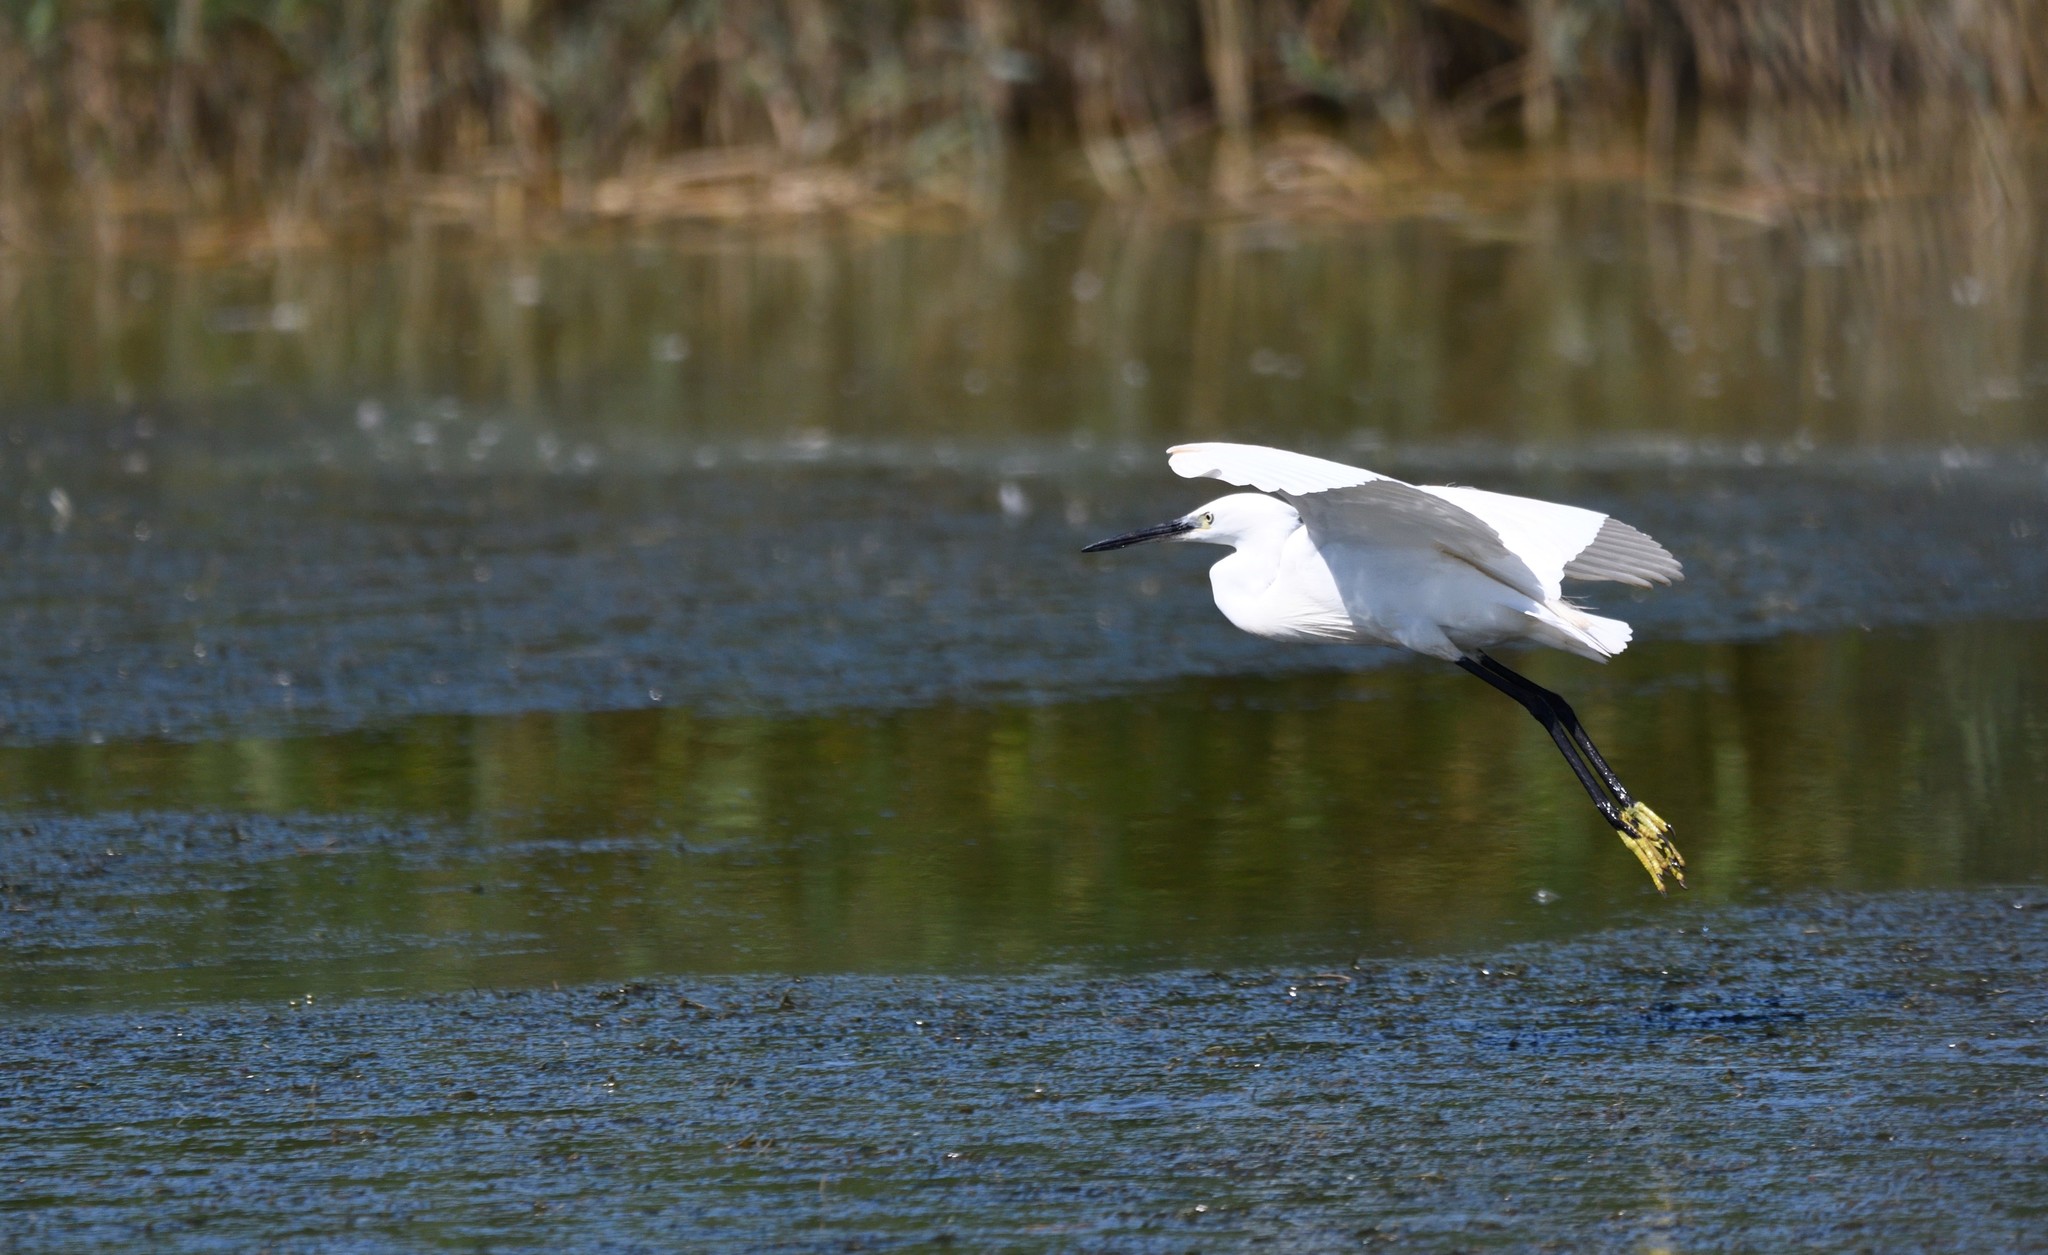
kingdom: Animalia
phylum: Chordata
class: Aves
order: Pelecaniformes
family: Ardeidae
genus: Egretta
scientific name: Egretta garzetta
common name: Little egret
